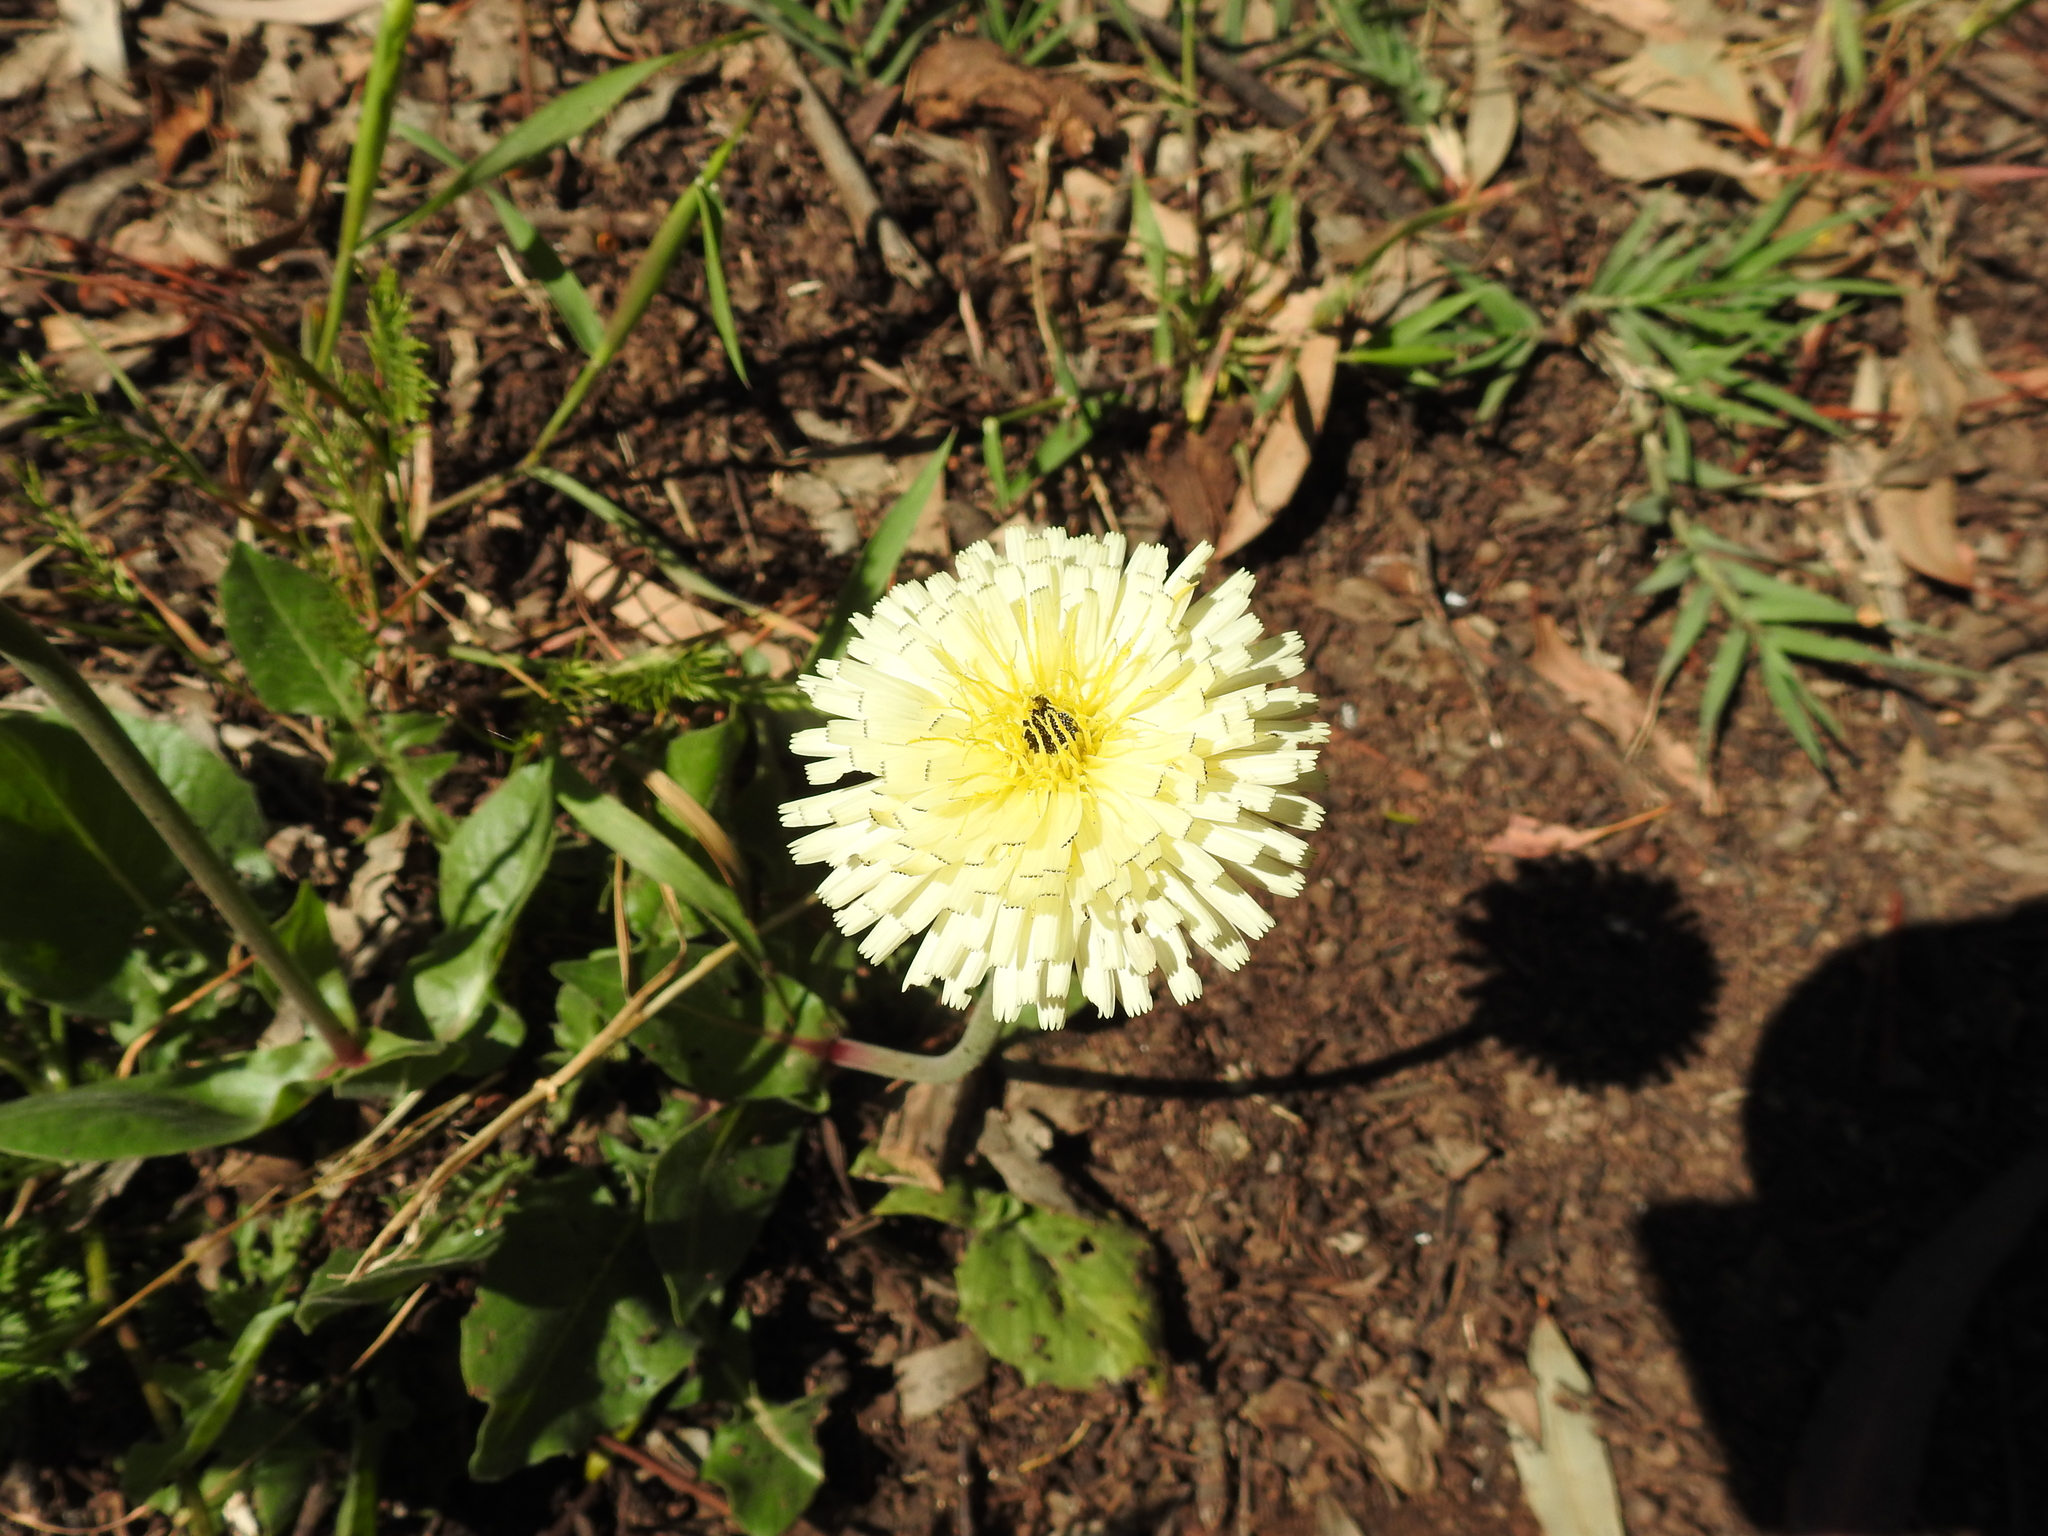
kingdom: Plantae
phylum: Tracheophyta
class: Magnoliopsida
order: Asterales
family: Asteraceae
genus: Urospermum
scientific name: Urospermum dalechampii
